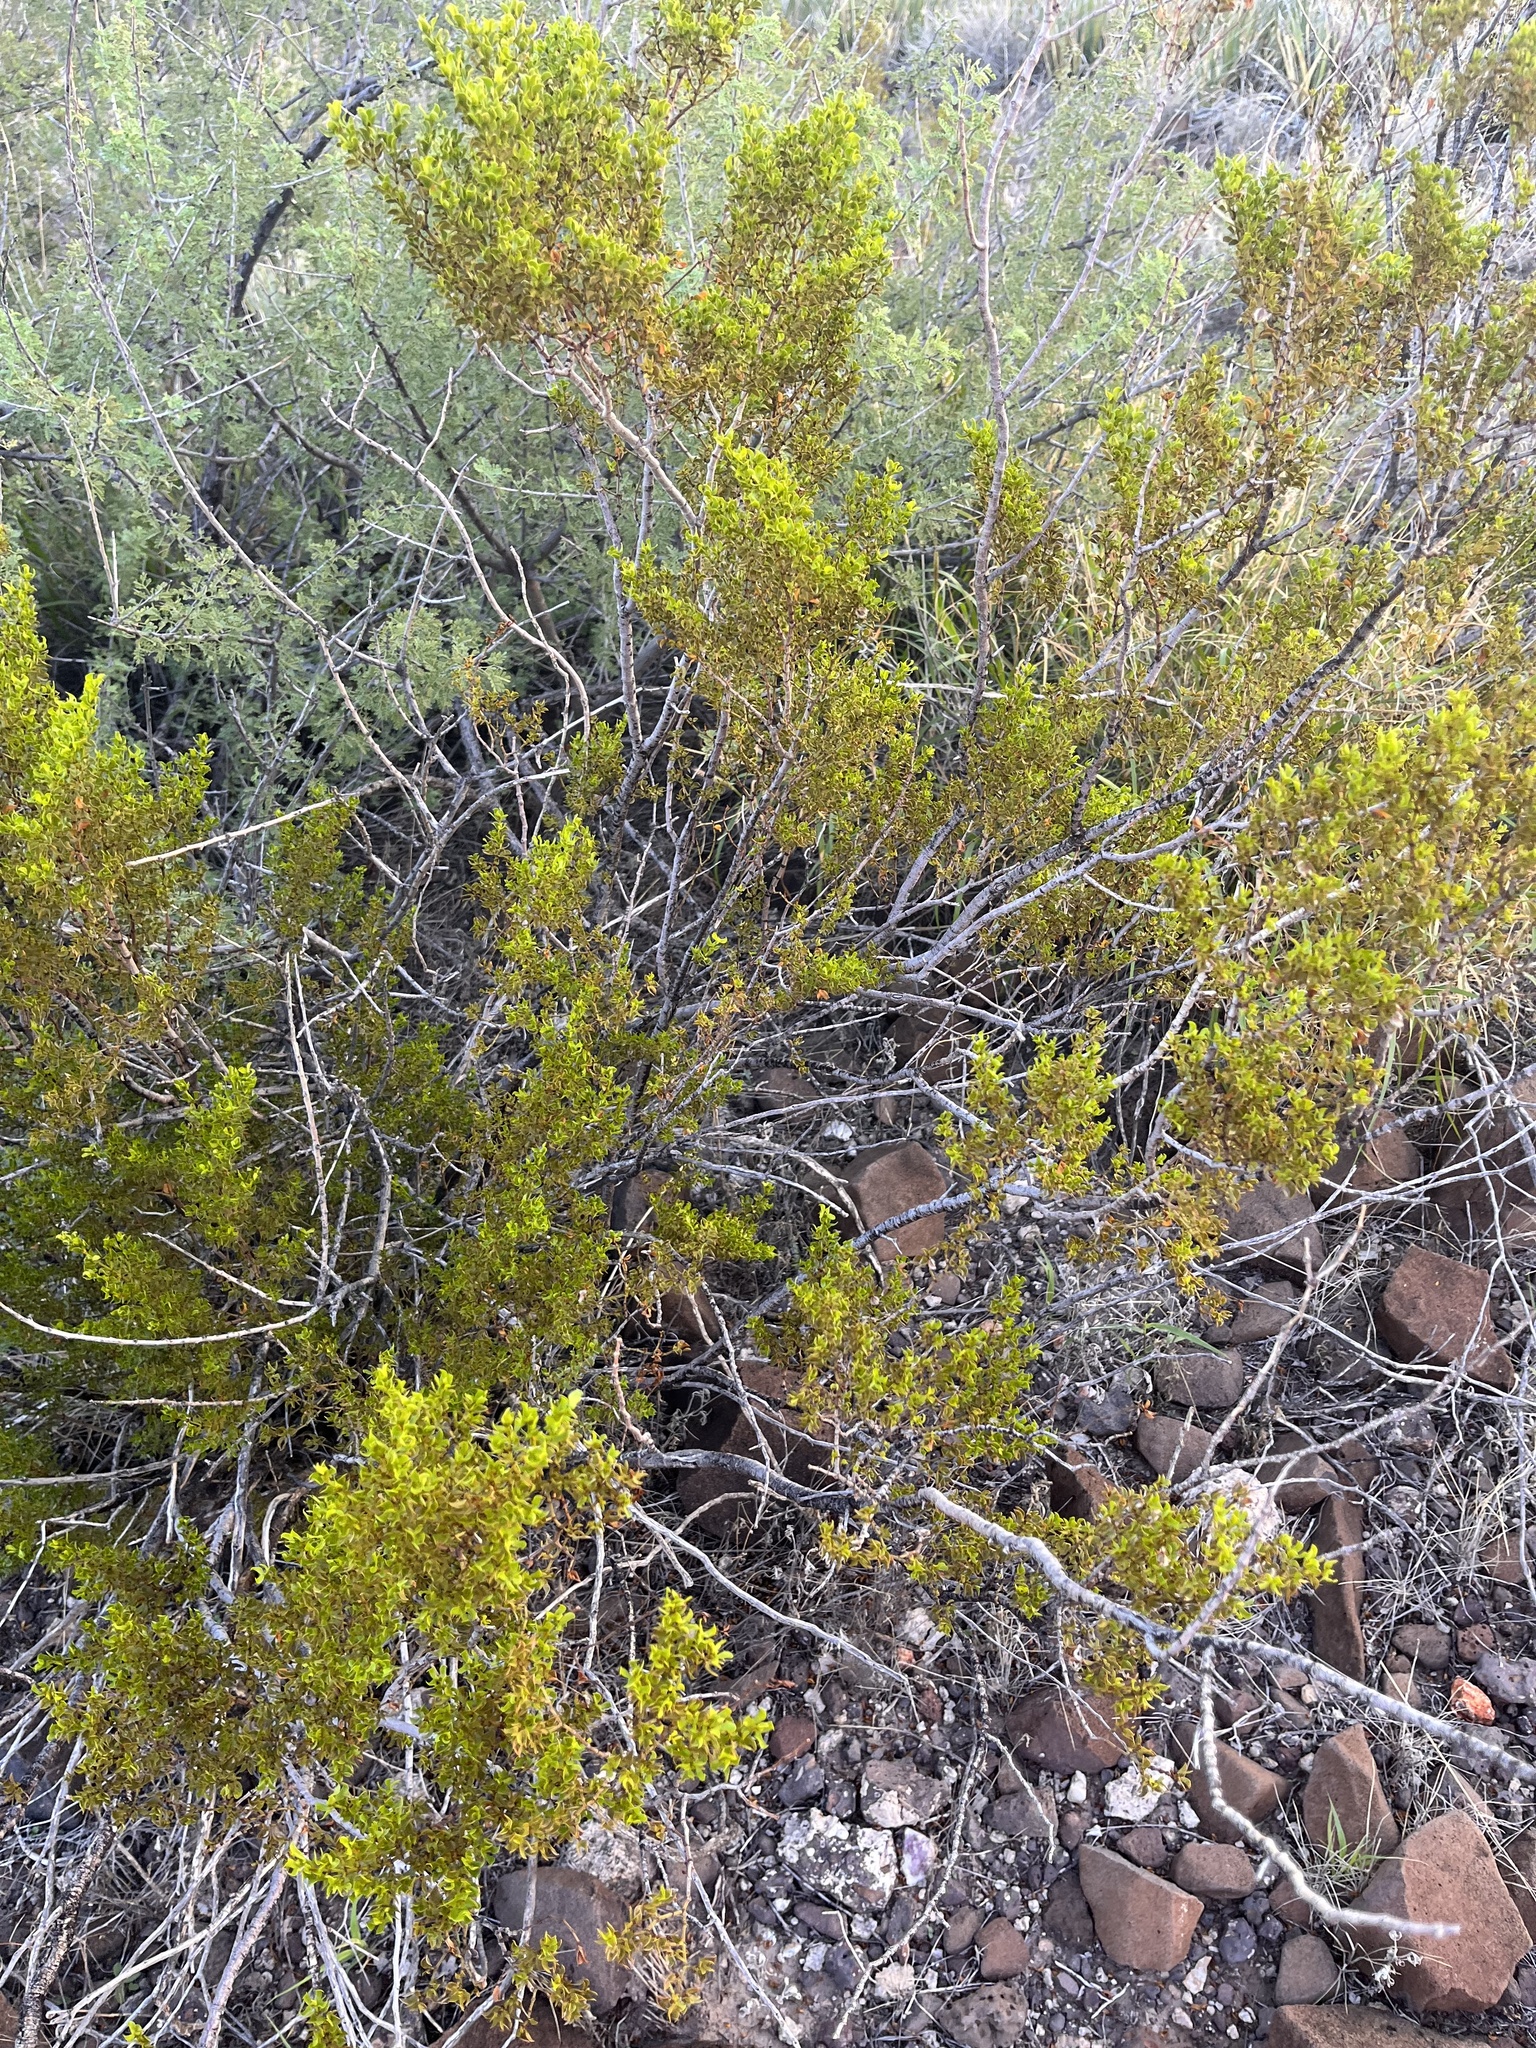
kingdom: Plantae
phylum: Tracheophyta
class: Magnoliopsida
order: Zygophyllales
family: Zygophyllaceae
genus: Larrea
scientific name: Larrea tridentata
